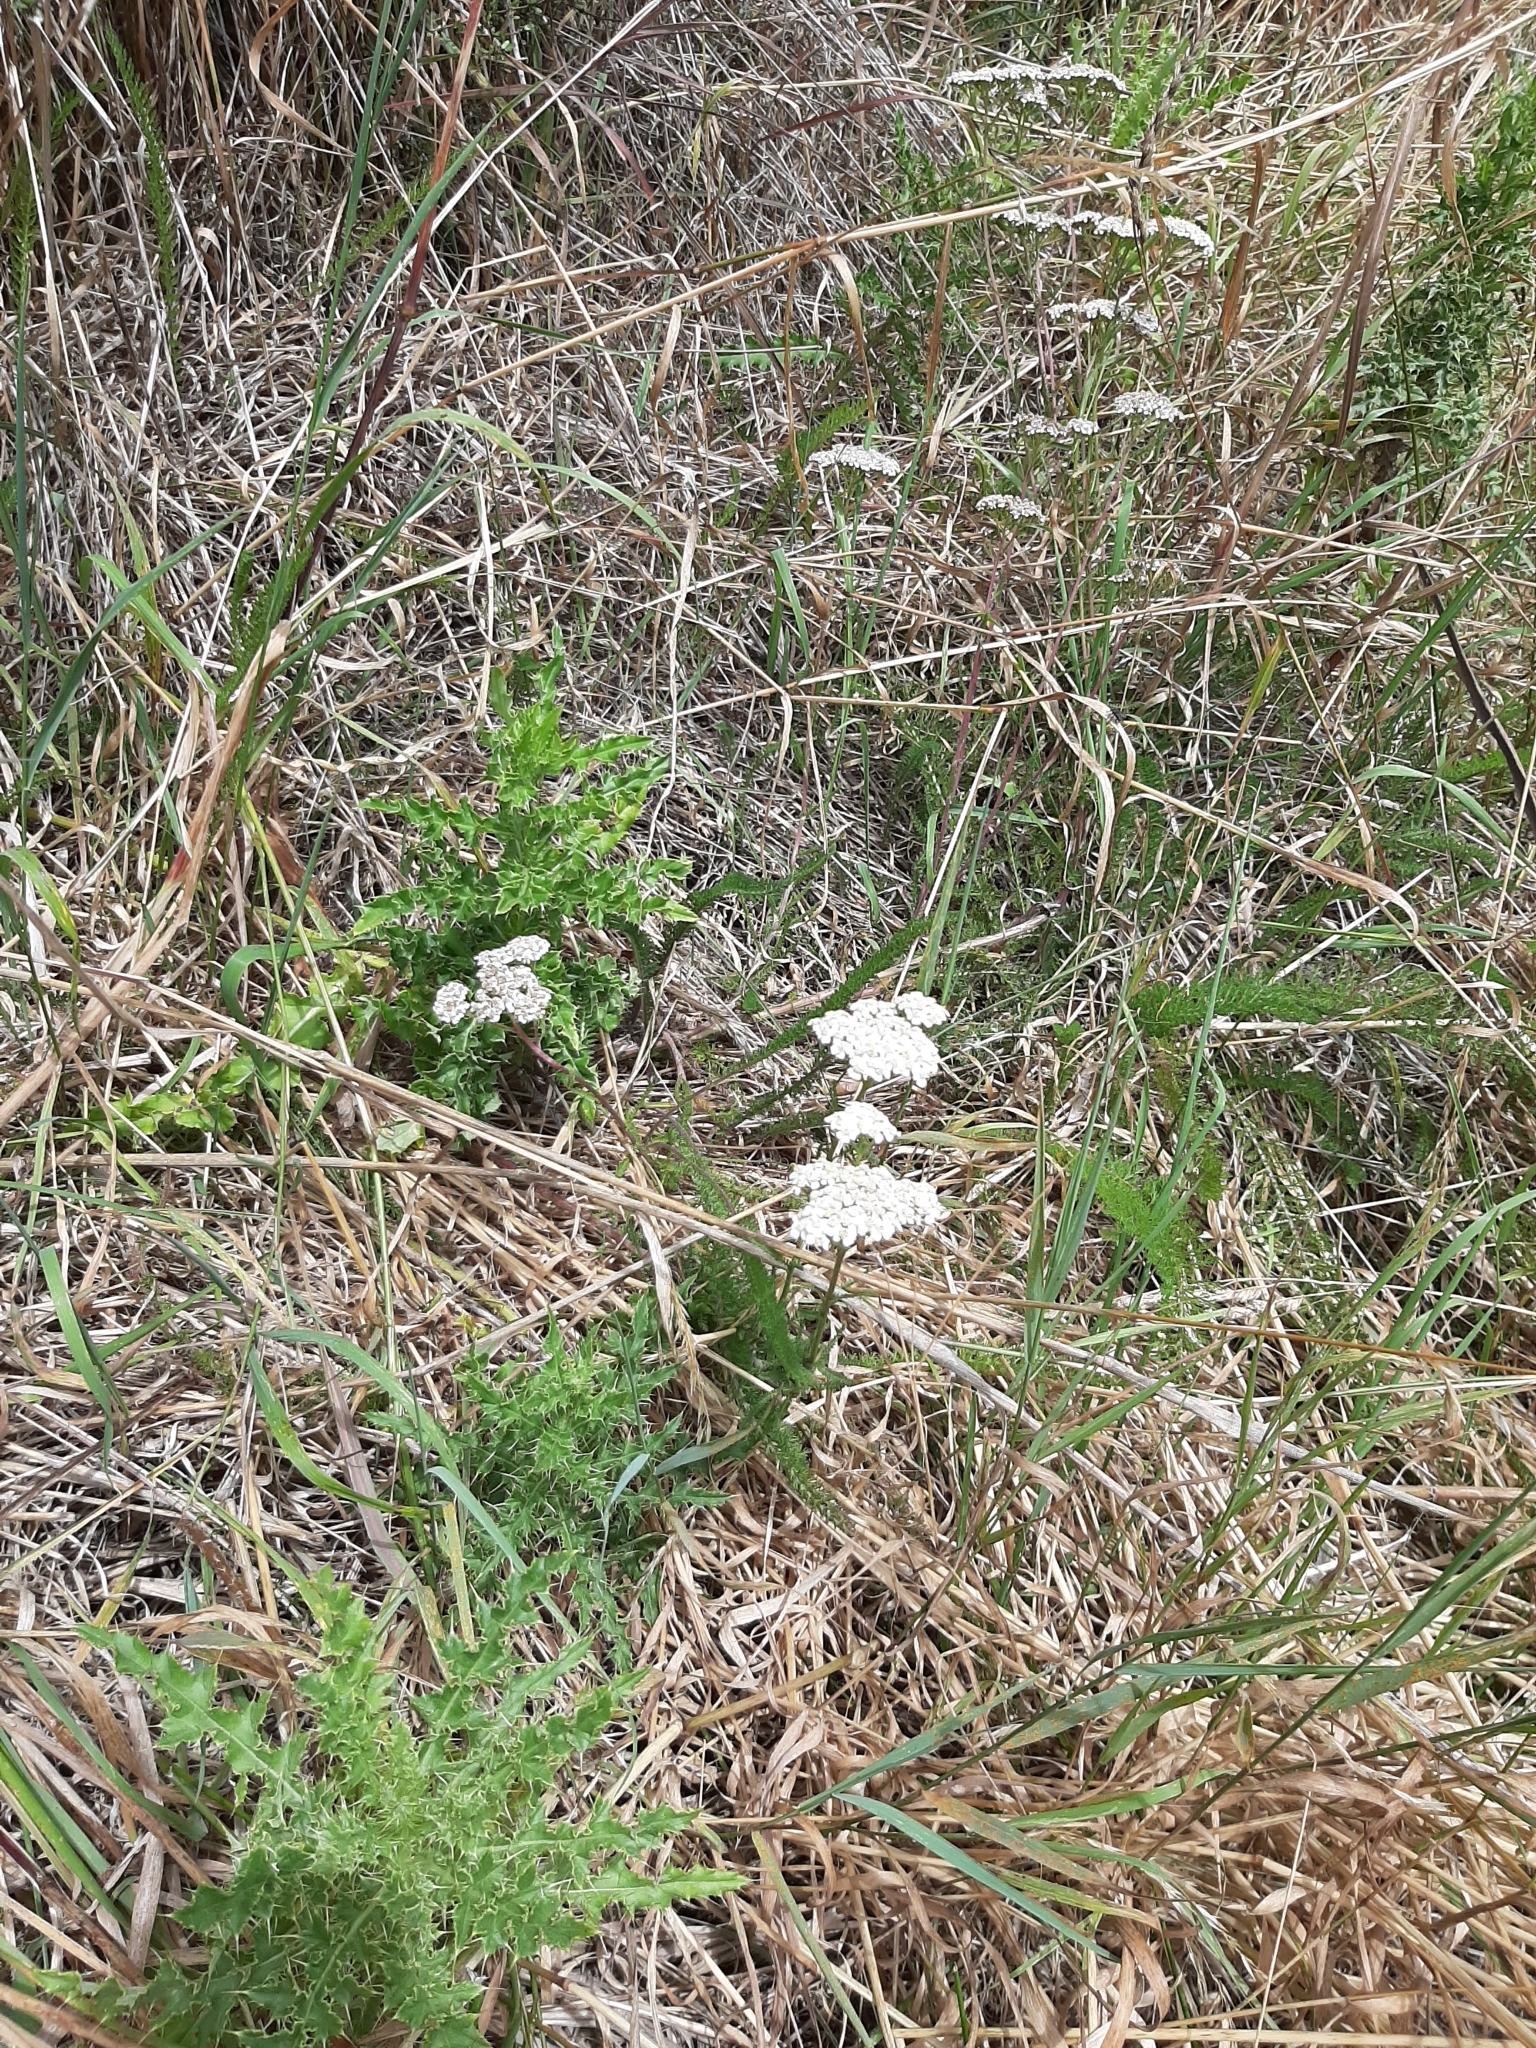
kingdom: Plantae
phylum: Tracheophyta
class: Magnoliopsida
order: Asterales
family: Asteraceae
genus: Achillea
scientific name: Achillea millefolium
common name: Yarrow
